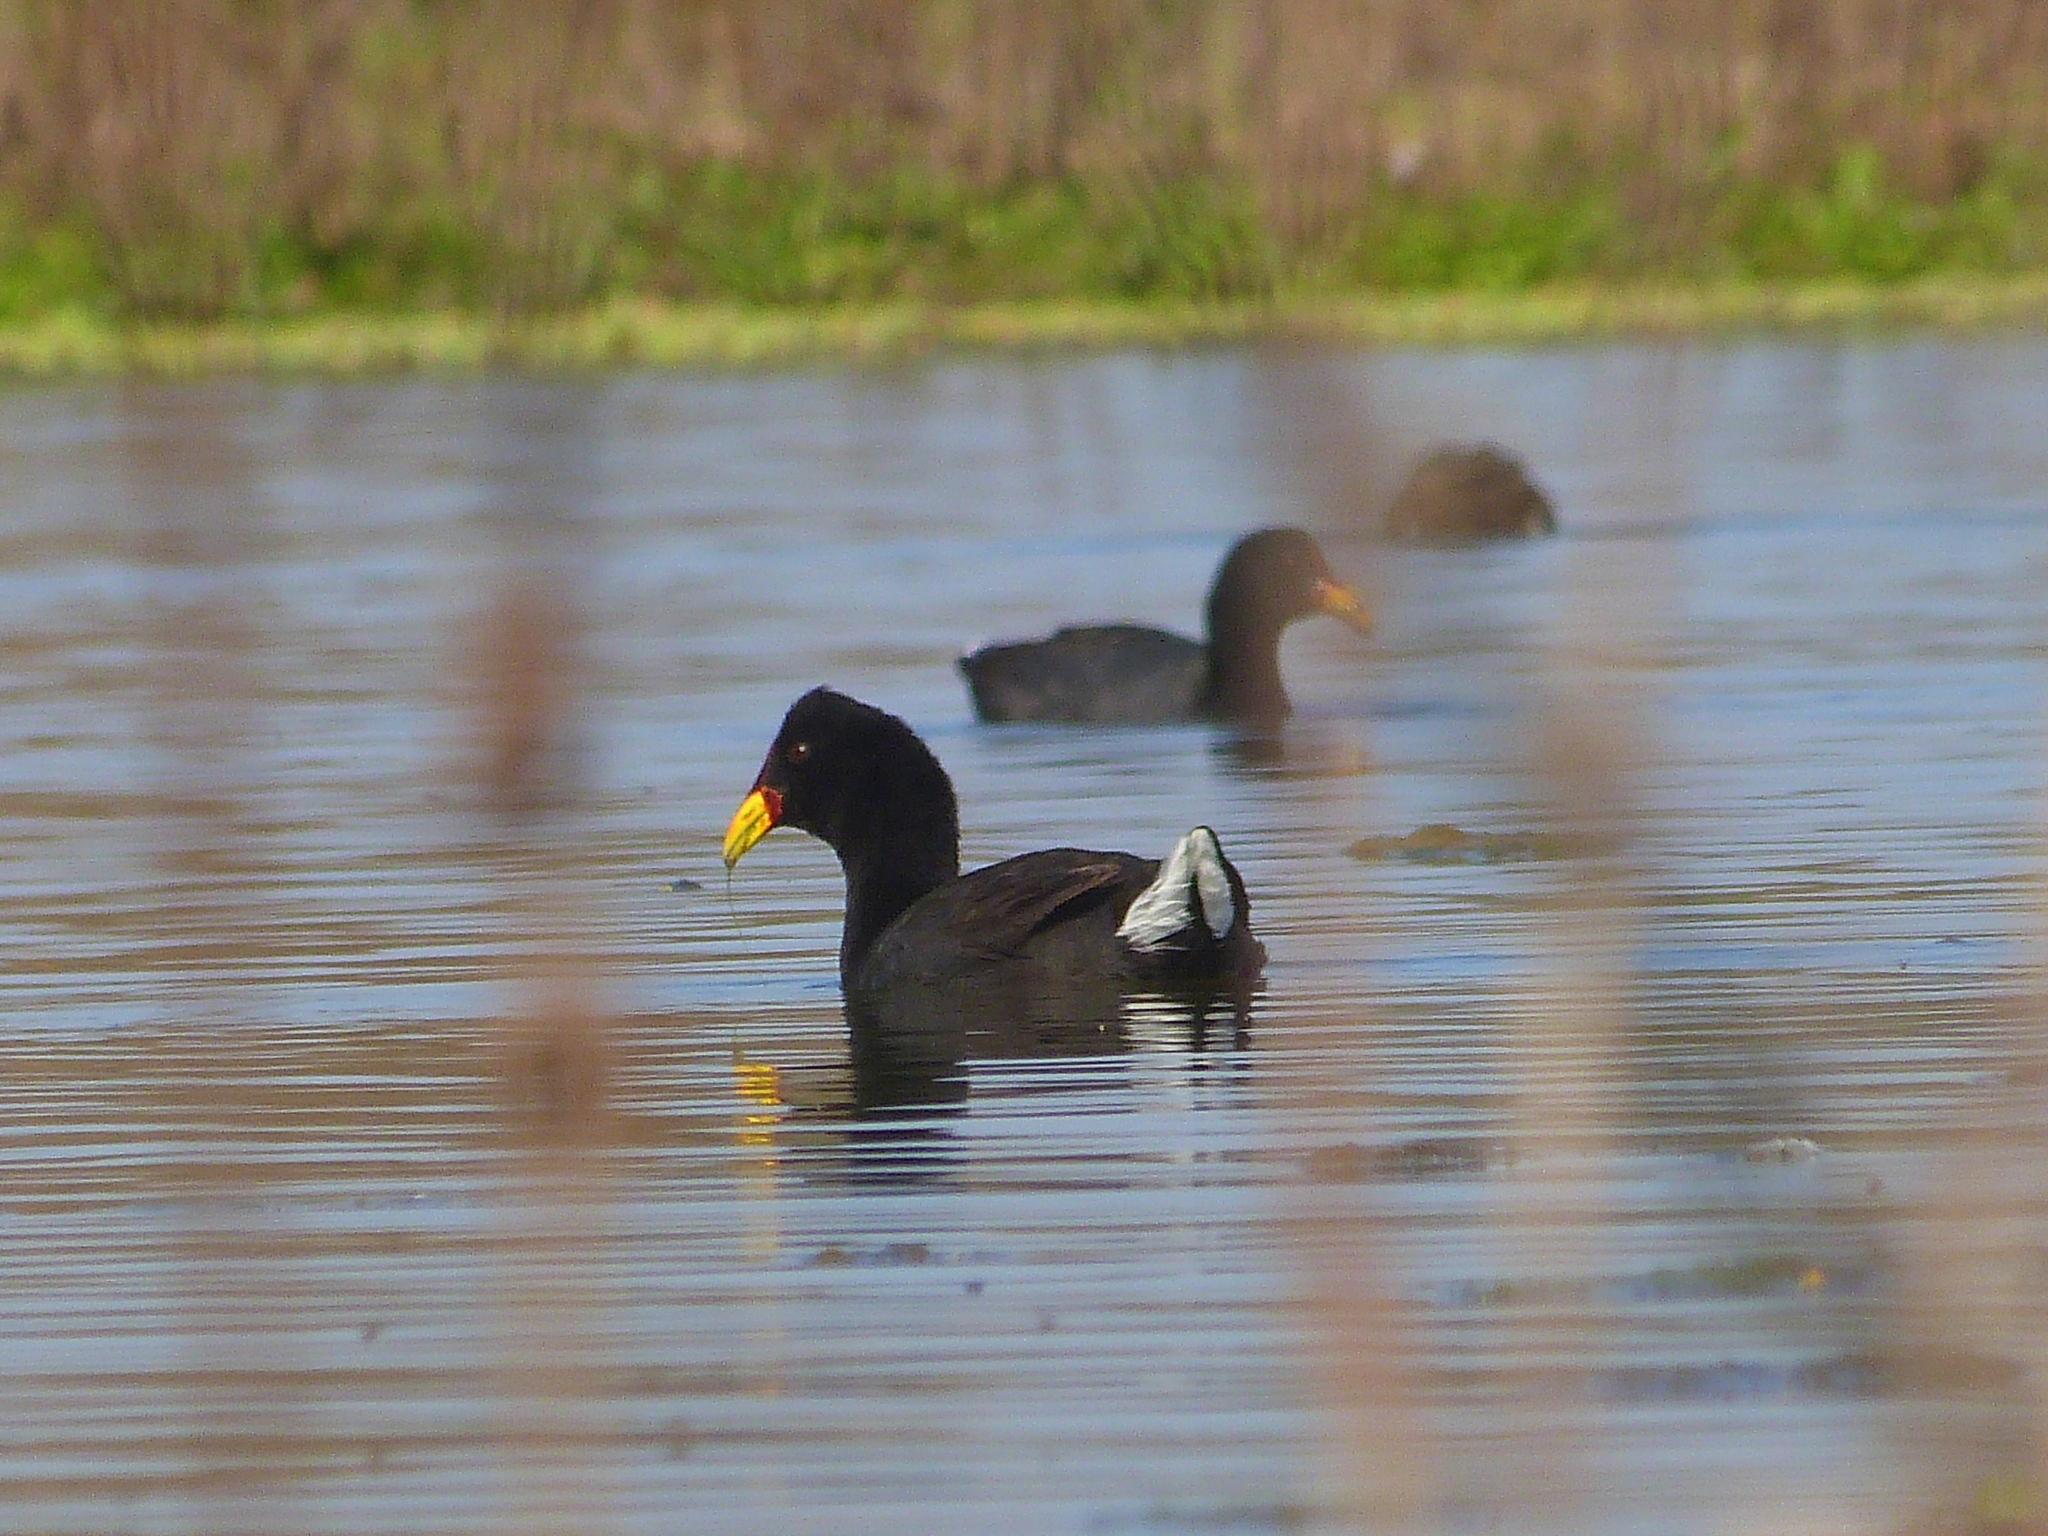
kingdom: Animalia
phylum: Chordata
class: Aves
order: Gruiformes
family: Rallidae
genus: Fulica
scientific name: Fulica rufifrons
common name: Red-fronted coot
